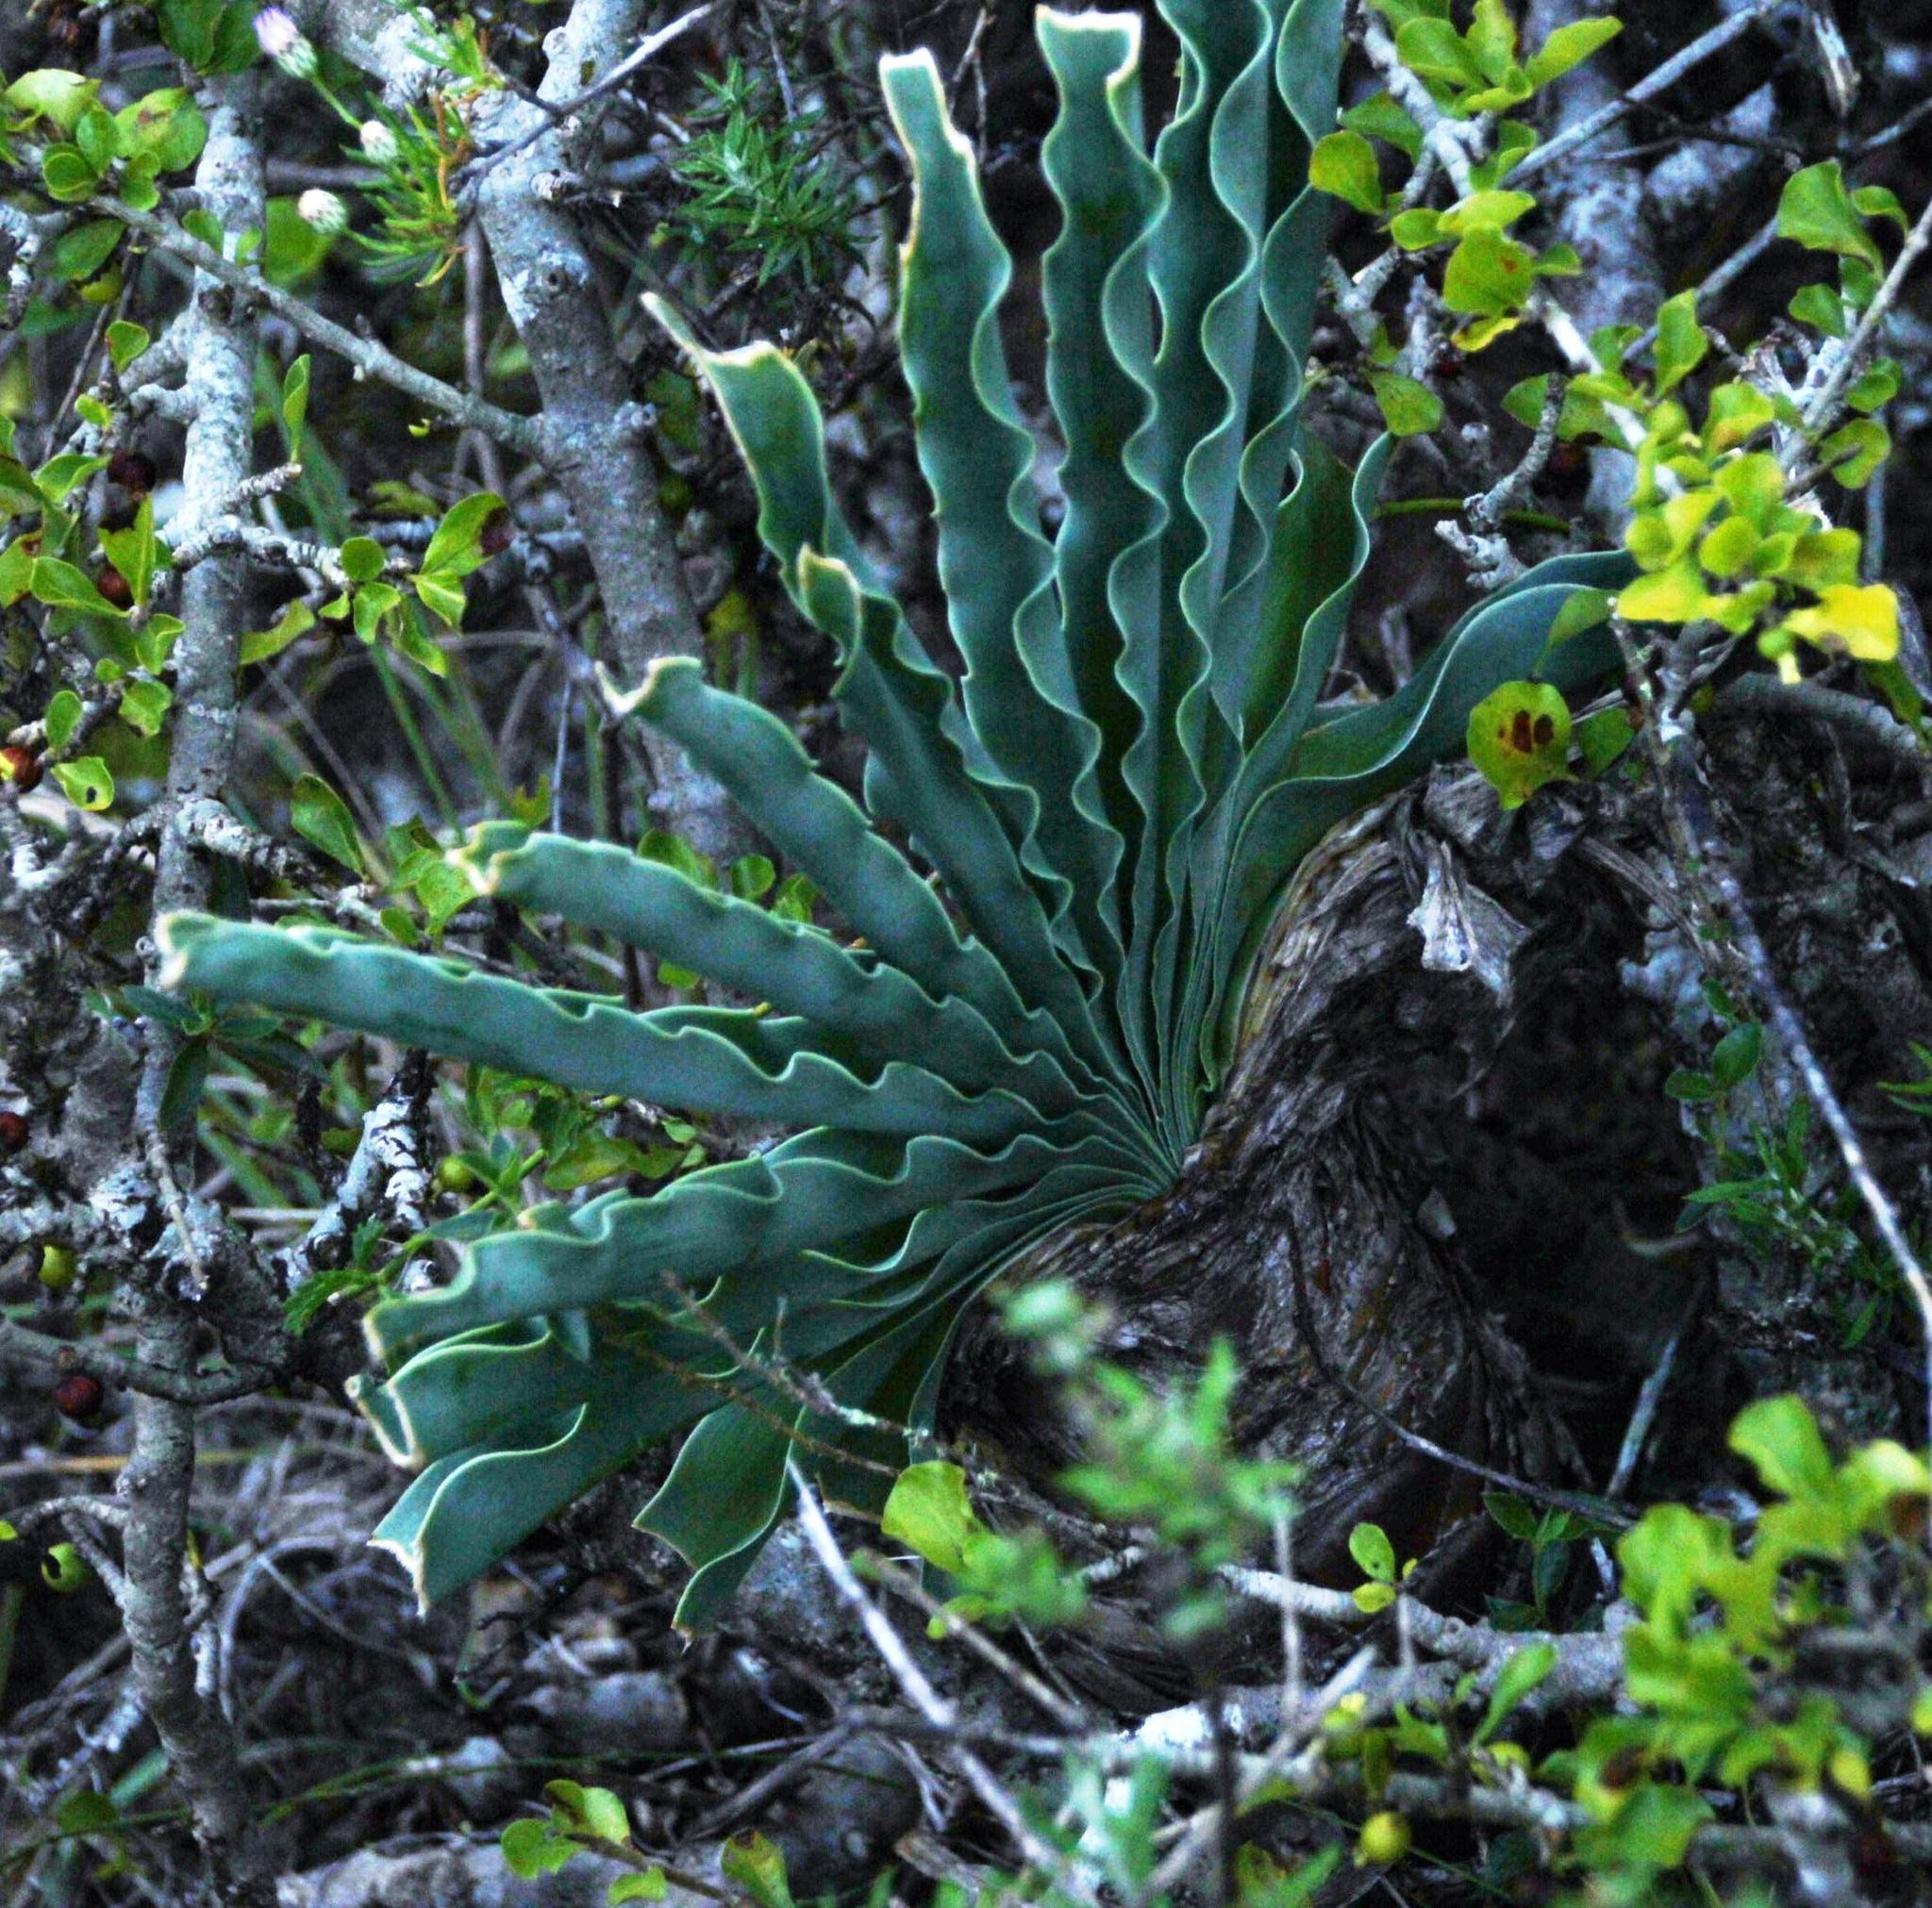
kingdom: Plantae
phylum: Tracheophyta
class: Liliopsida
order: Asparagales
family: Amaryllidaceae
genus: Boophone
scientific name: Boophone disticha
